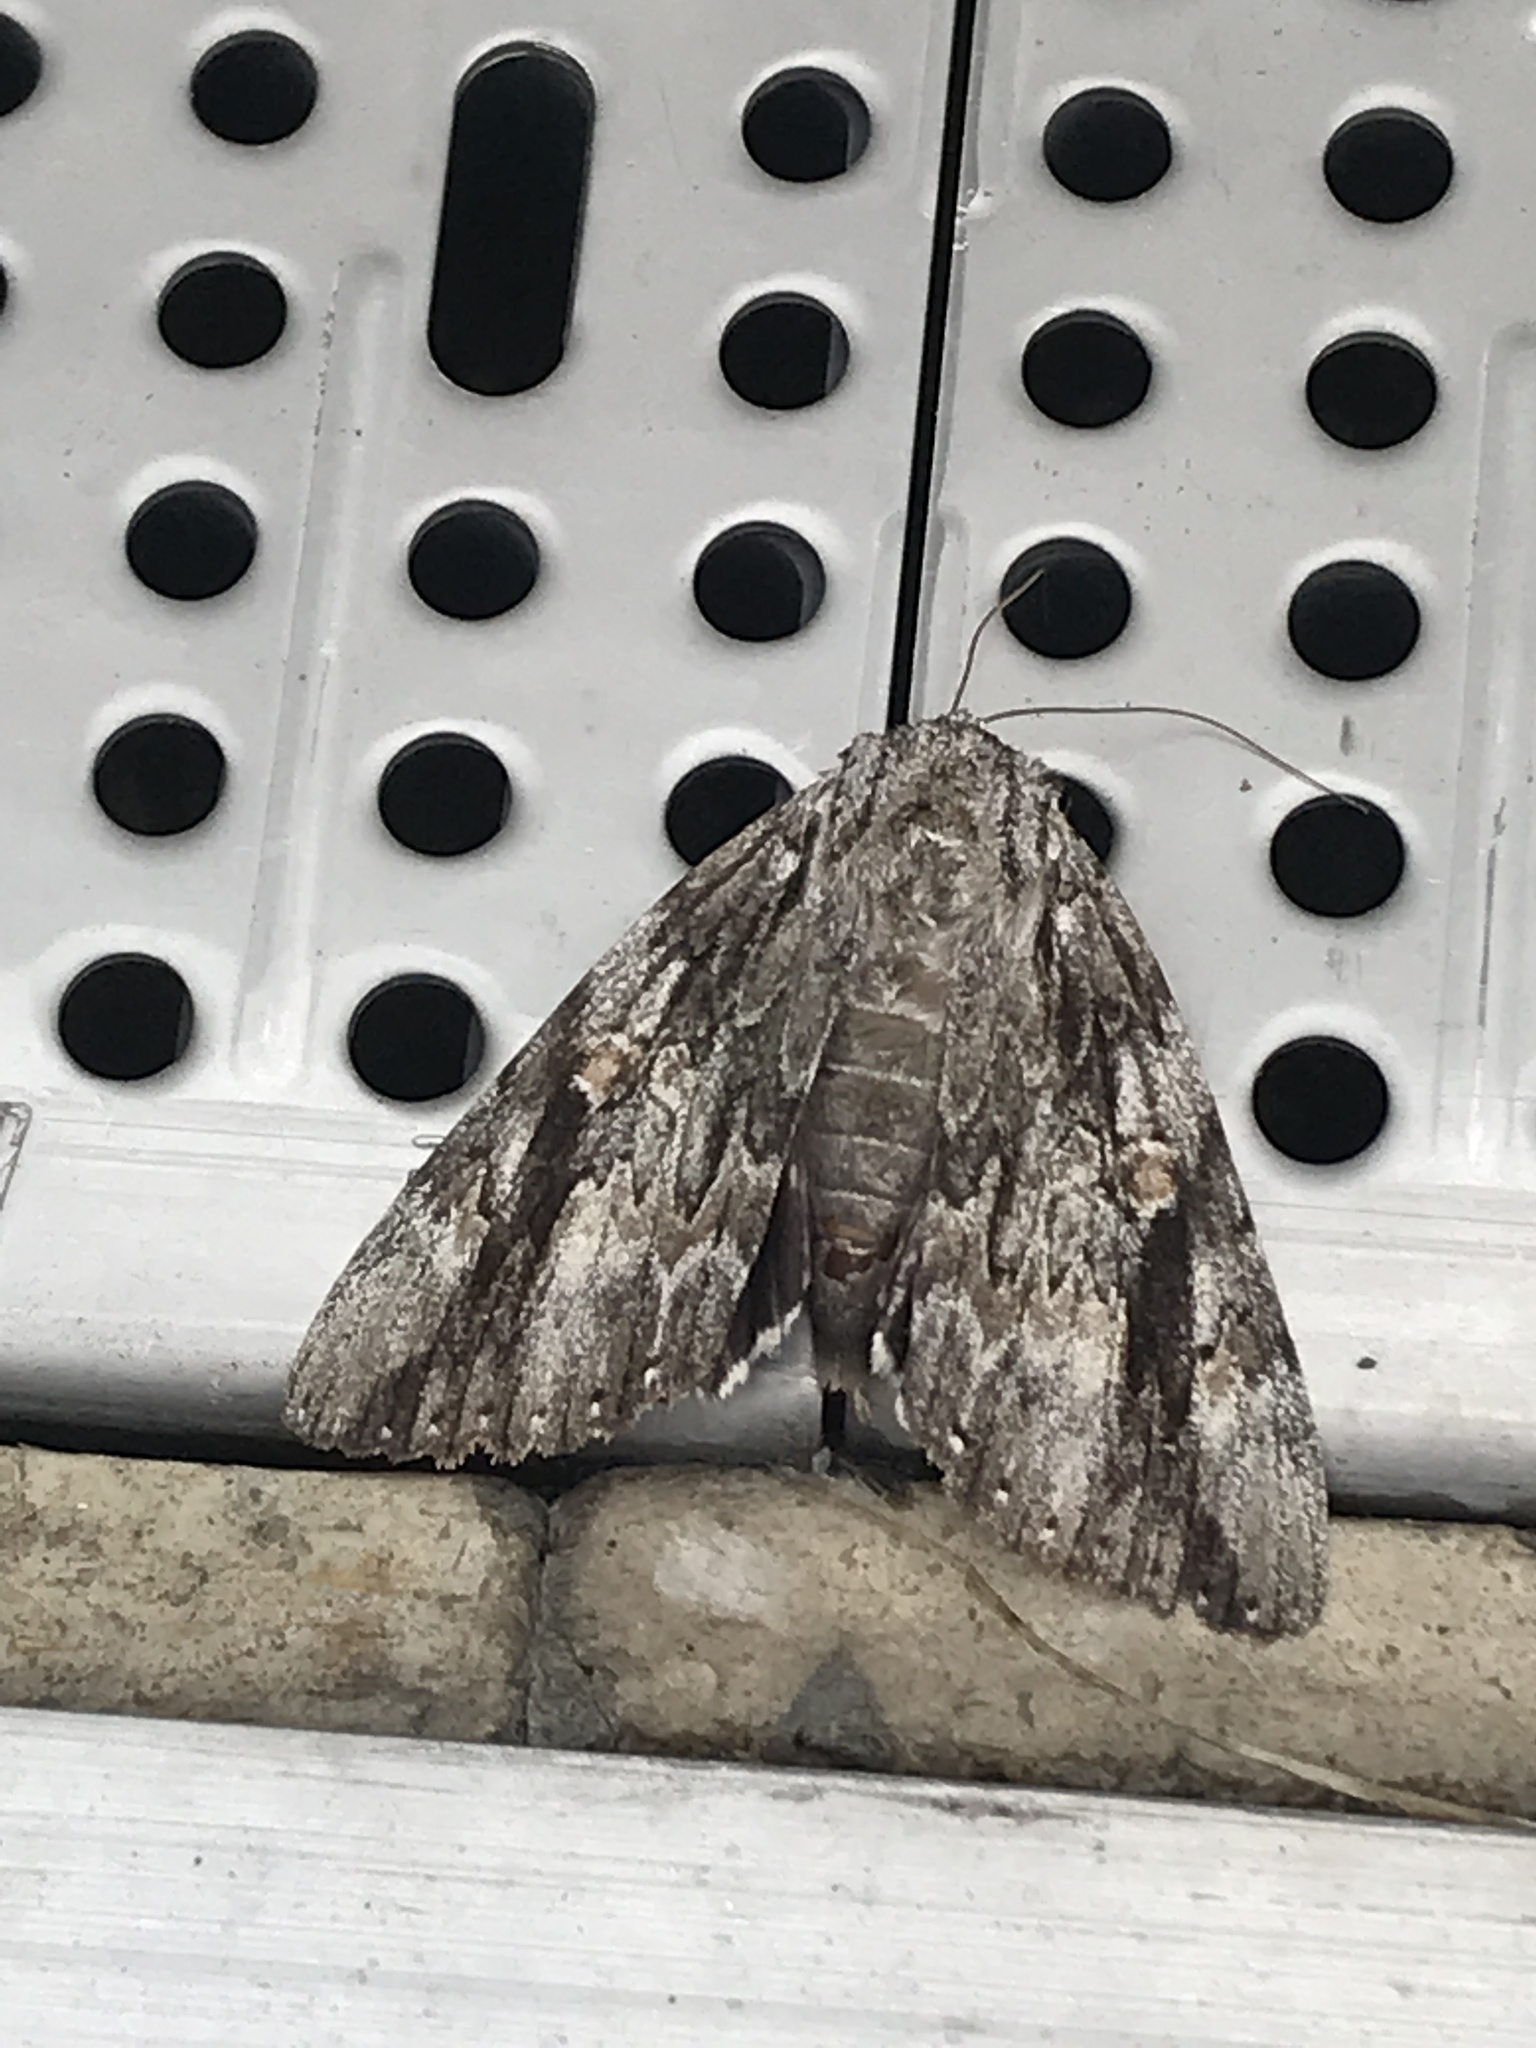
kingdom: Animalia
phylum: Arthropoda
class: Insecta
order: Lepidoptera
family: Erebidae
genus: Catocala
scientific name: Catocala maestosa
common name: Sad underwing
